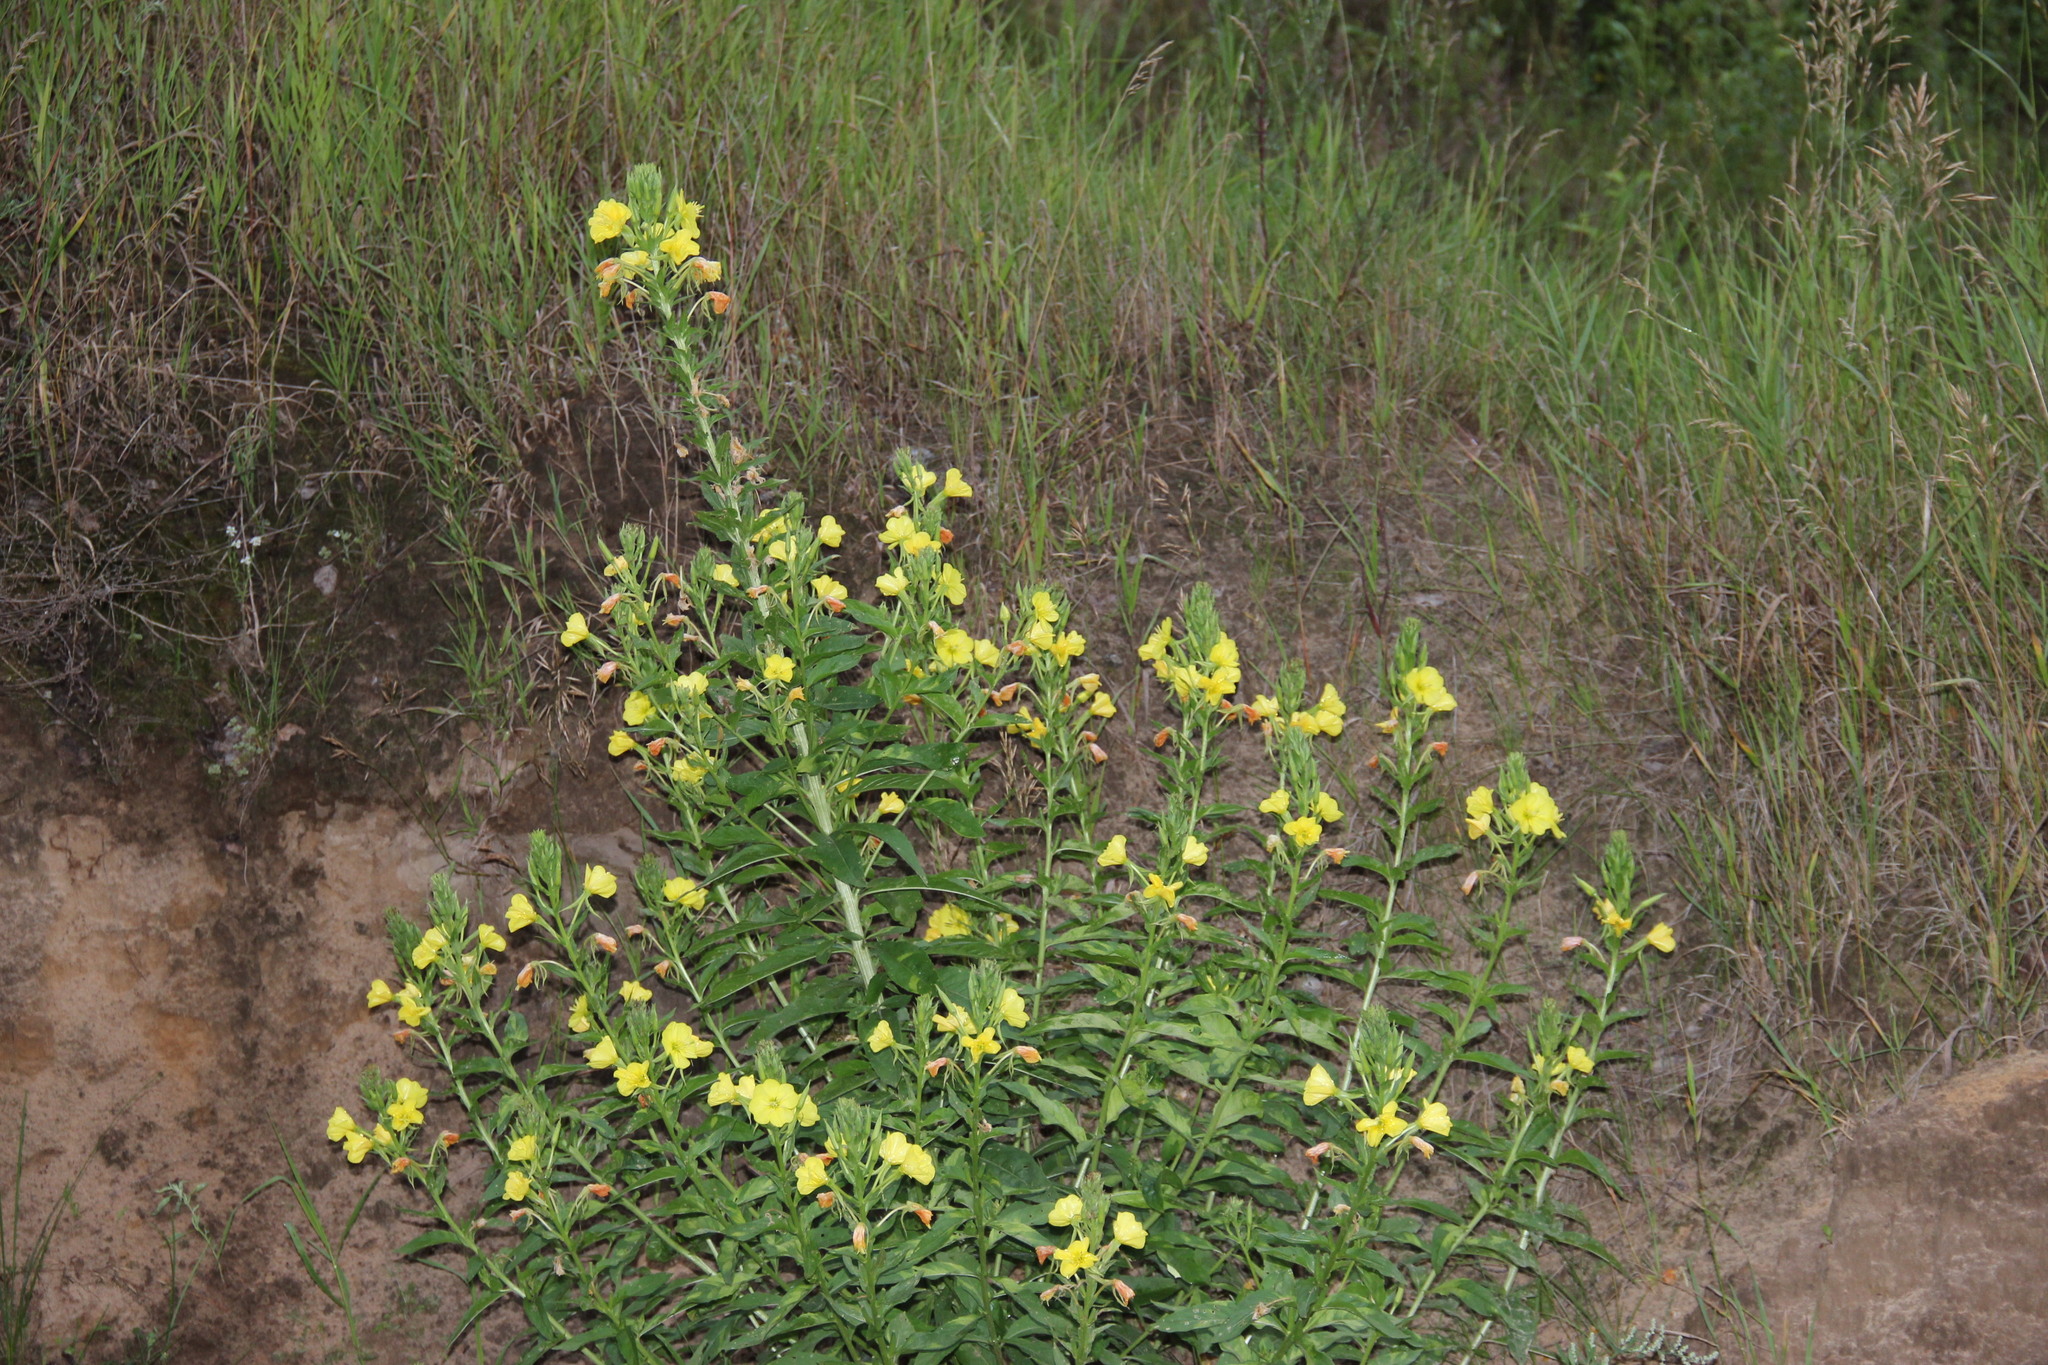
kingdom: Plantae
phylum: Tracheophyta
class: Magnoliopsida
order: Myrtales
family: Onagraceae
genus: Oenothera
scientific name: Oenothera biennis
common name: Common evening-primrose
